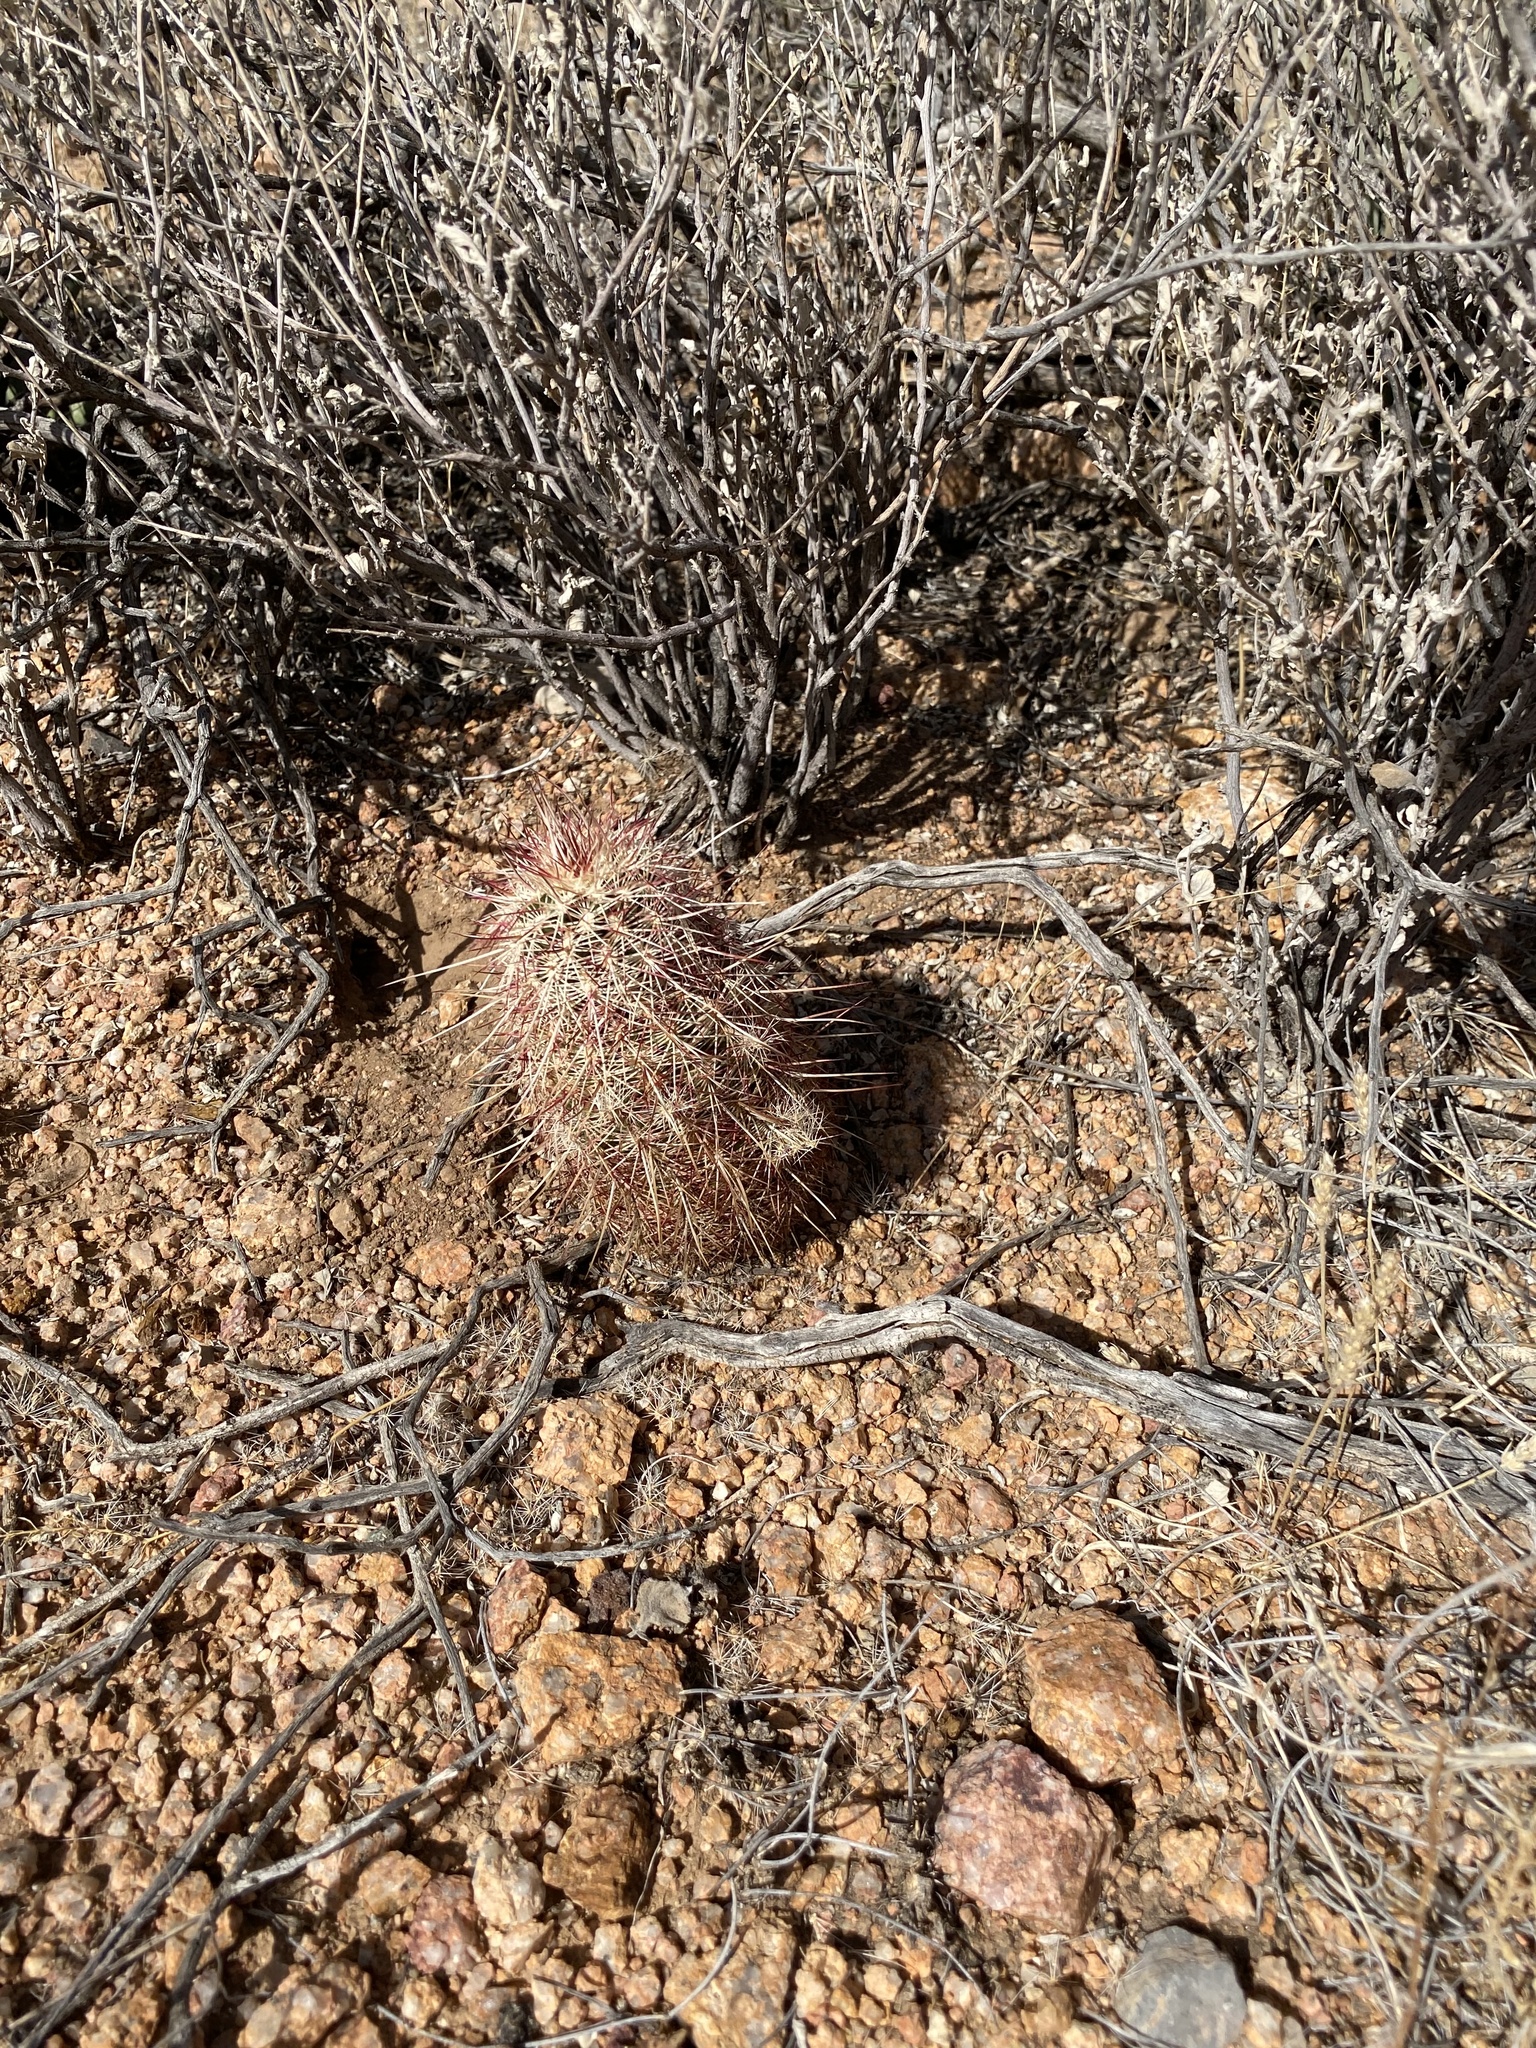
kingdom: Plantae
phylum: Tracheophyta
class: Magnoliopsida
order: Caryophyllales
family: Cactaceae
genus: Echinocereus
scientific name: Echinocereus viridiflorus
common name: Nylon hedgehog cactus
